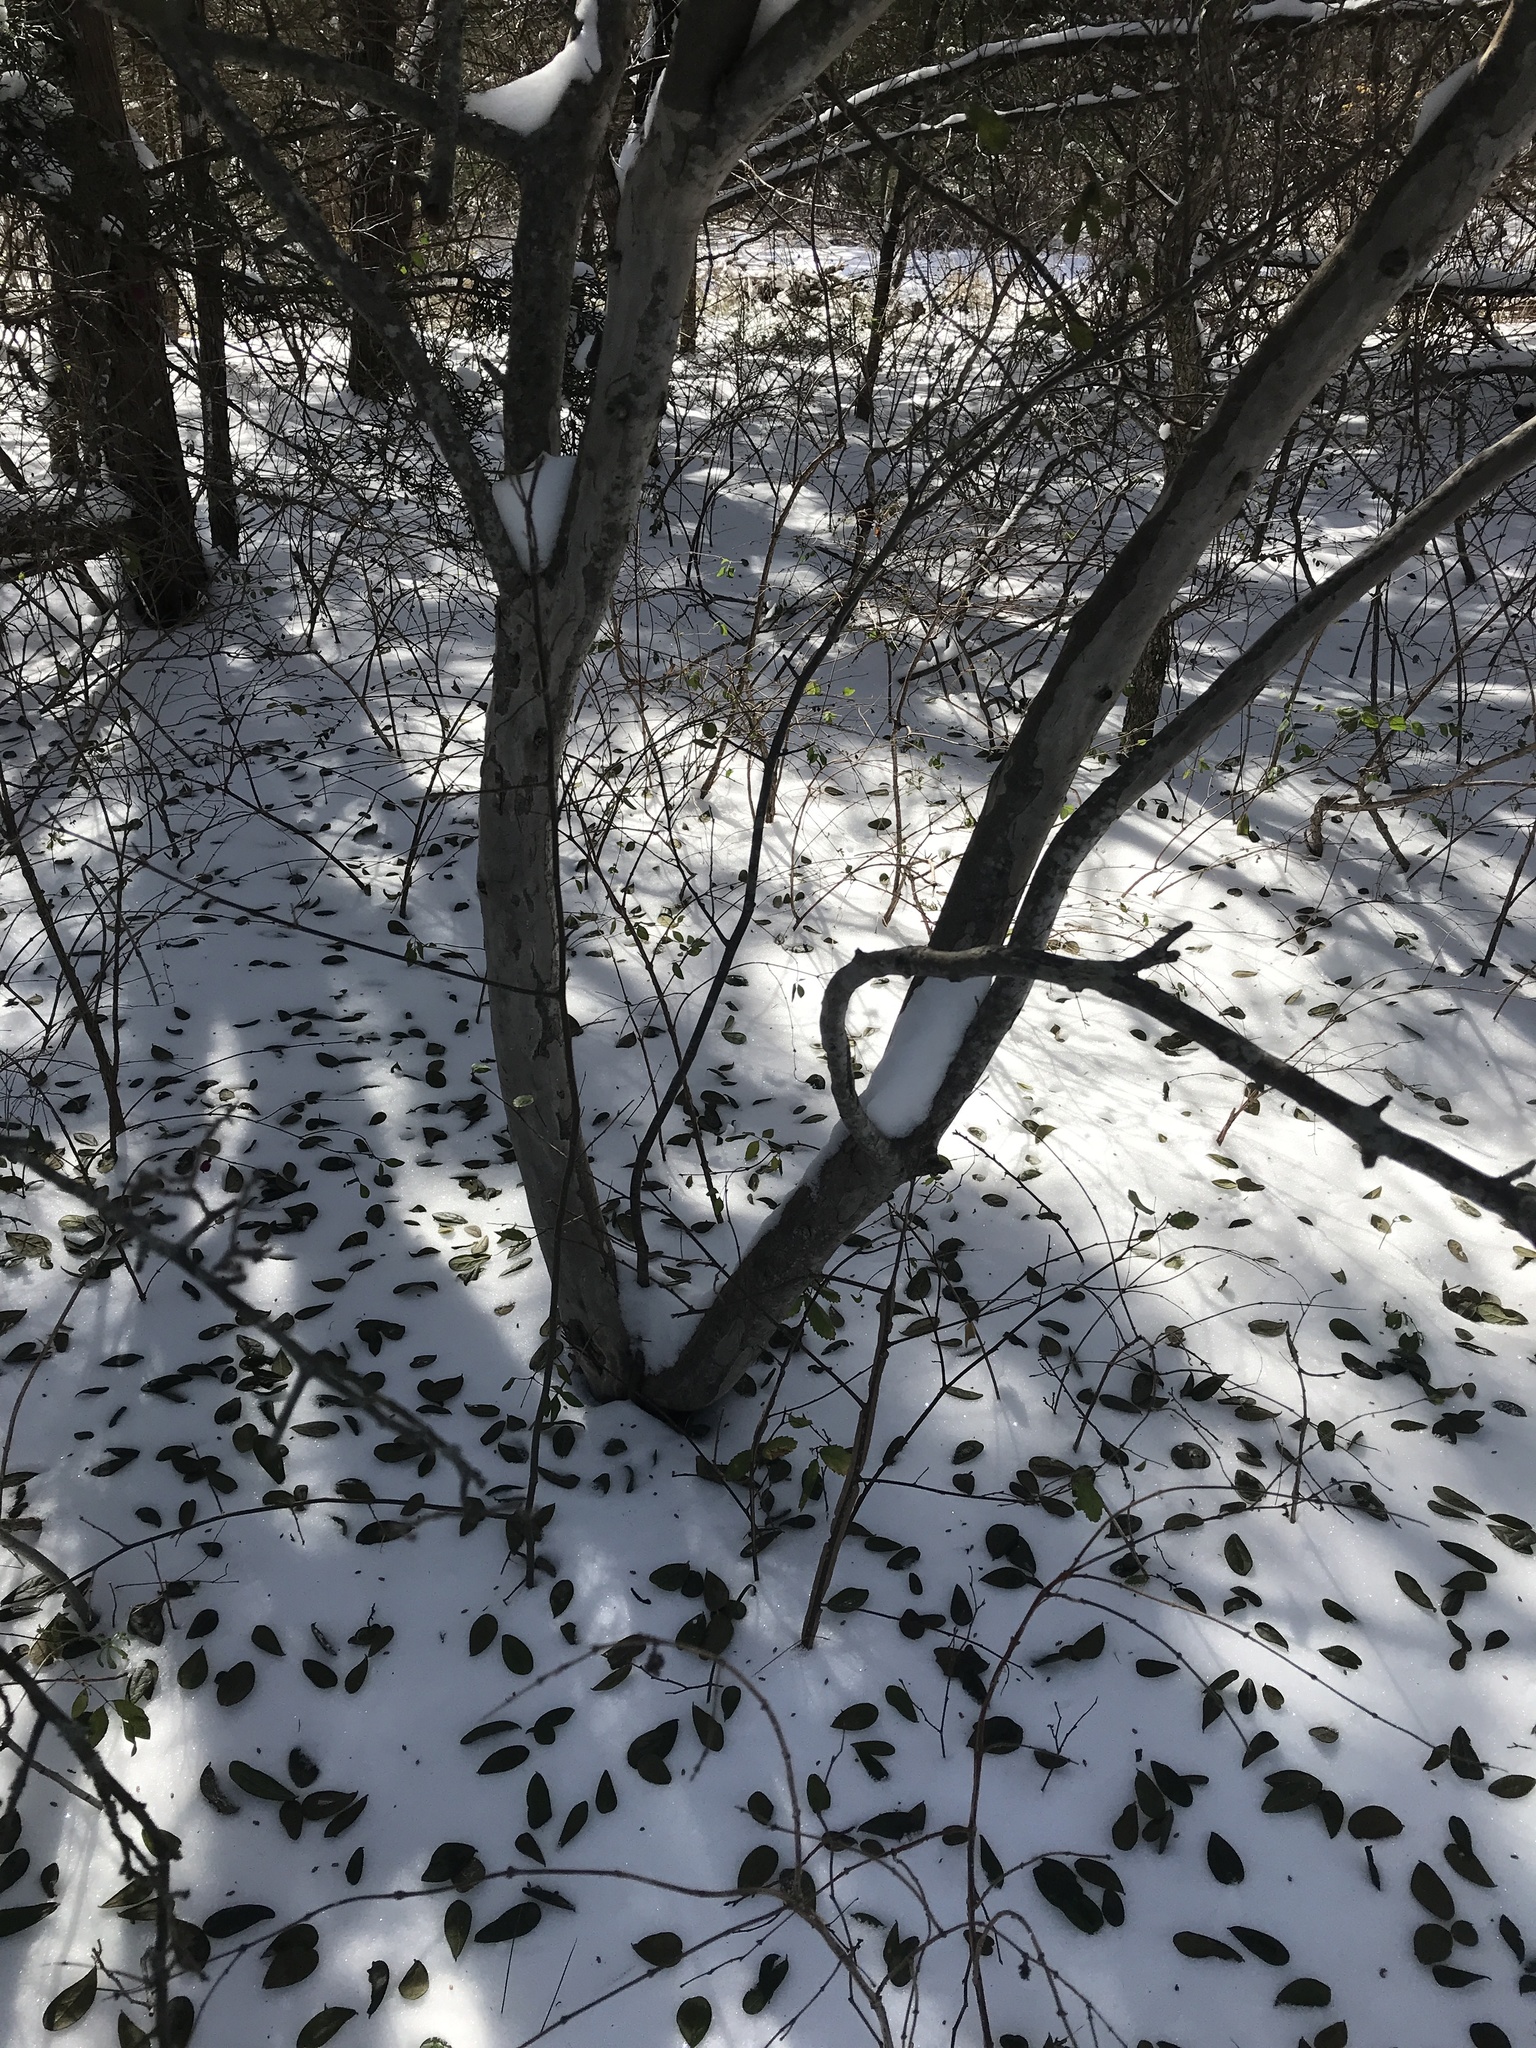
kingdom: Plantae
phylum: Tracheophyta
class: Magnoliopsida
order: Ericales
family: Ebenaceae
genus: Diospyros
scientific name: Diospyros texana
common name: Texas persimmon
